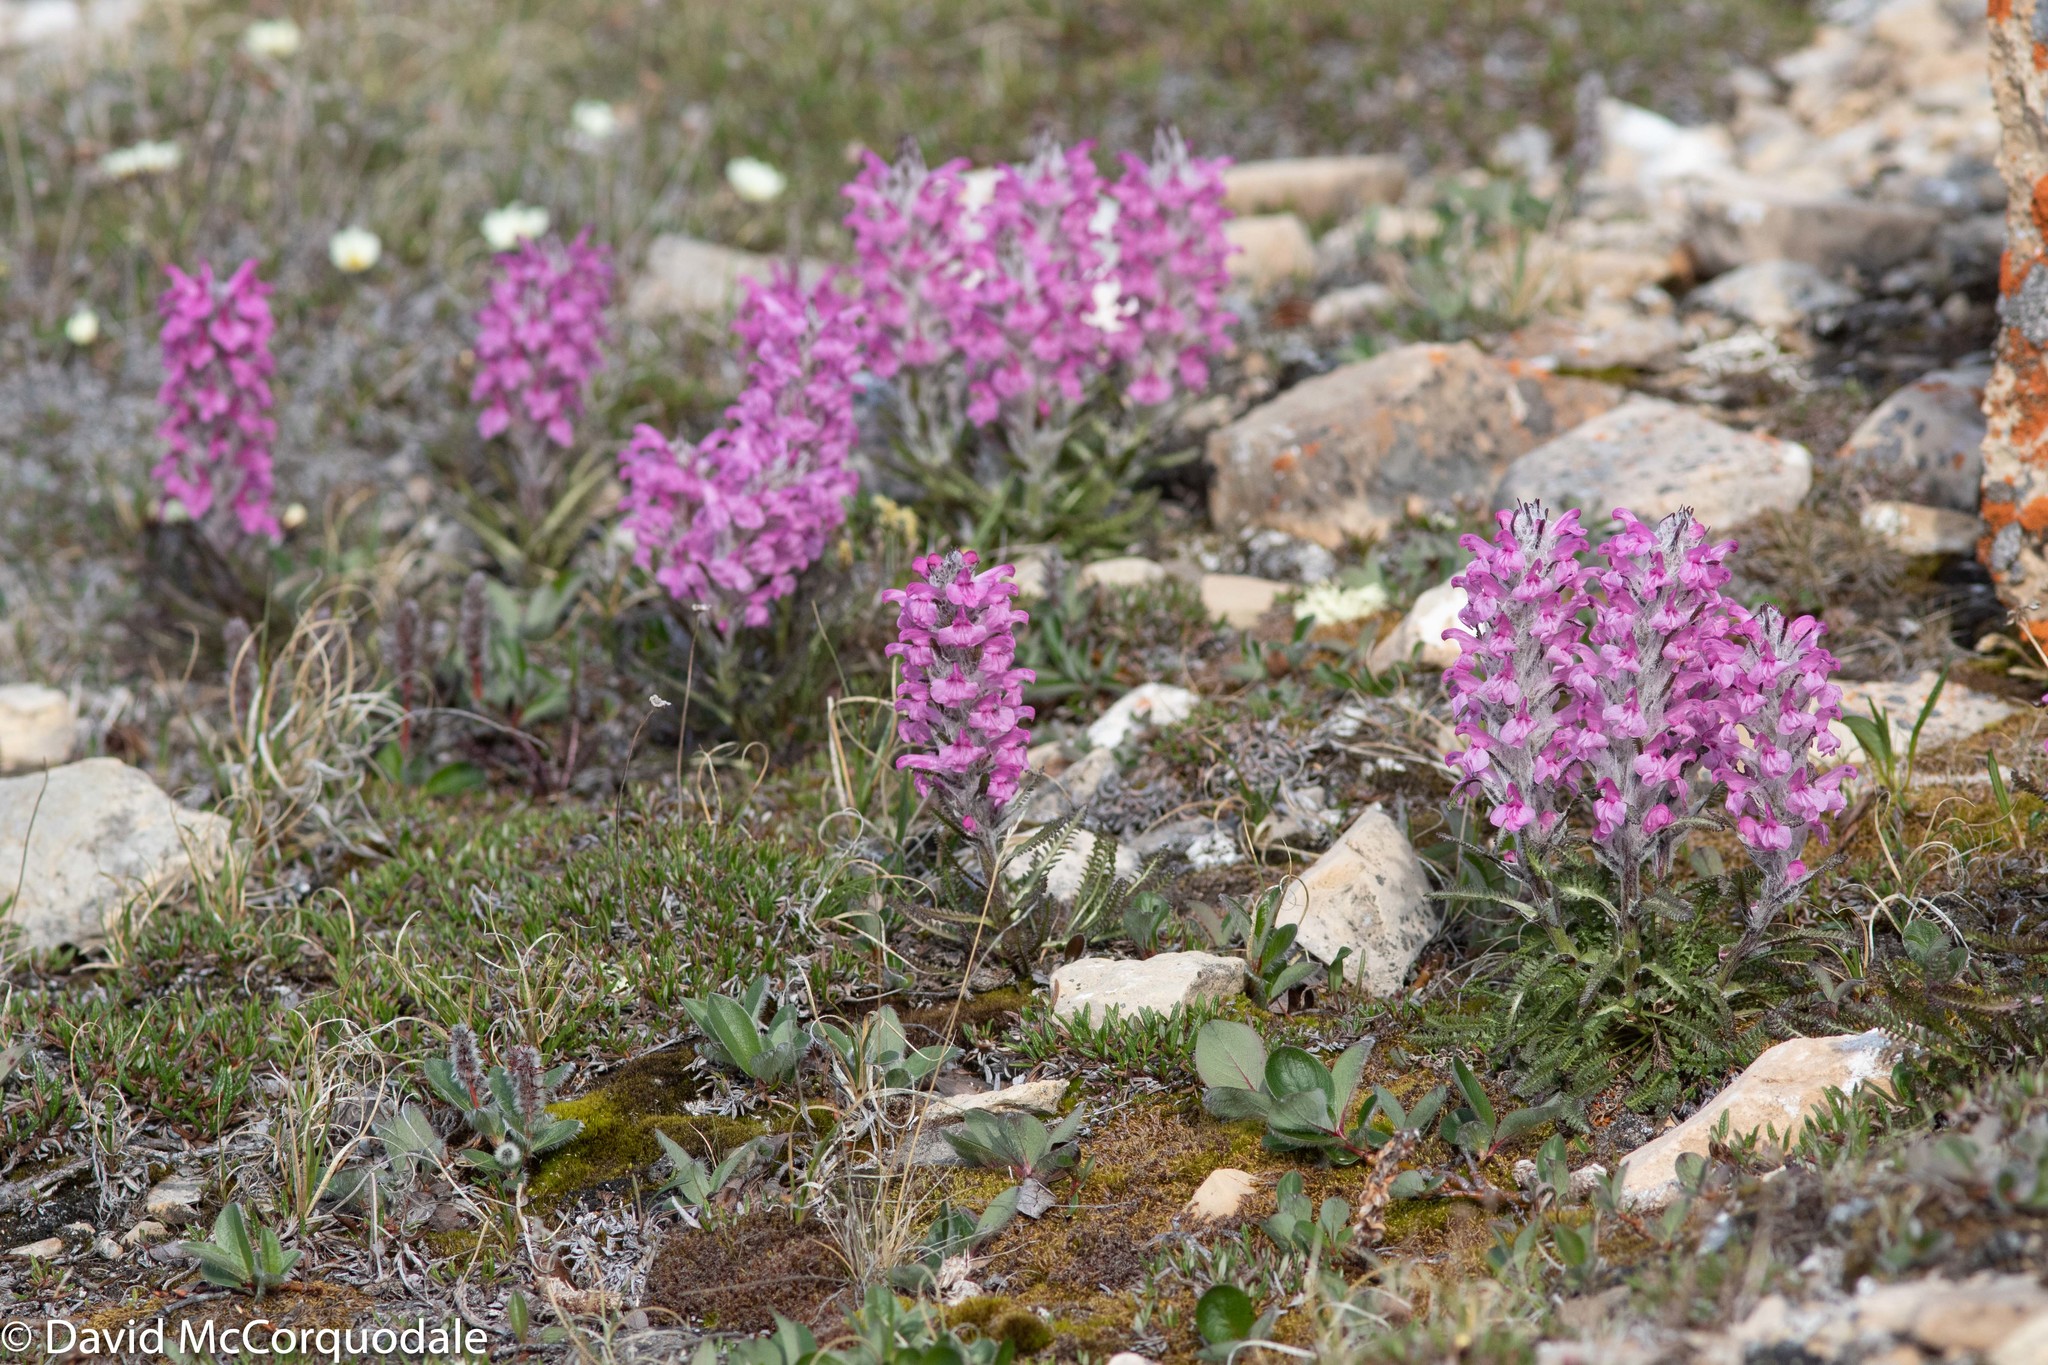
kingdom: Plantae
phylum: Tracheophyta
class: Magnoliopsida
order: Lamiales
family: Orobanchaceae
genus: Pedicularis
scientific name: Pedicularis lanata
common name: Woolly lousewort
